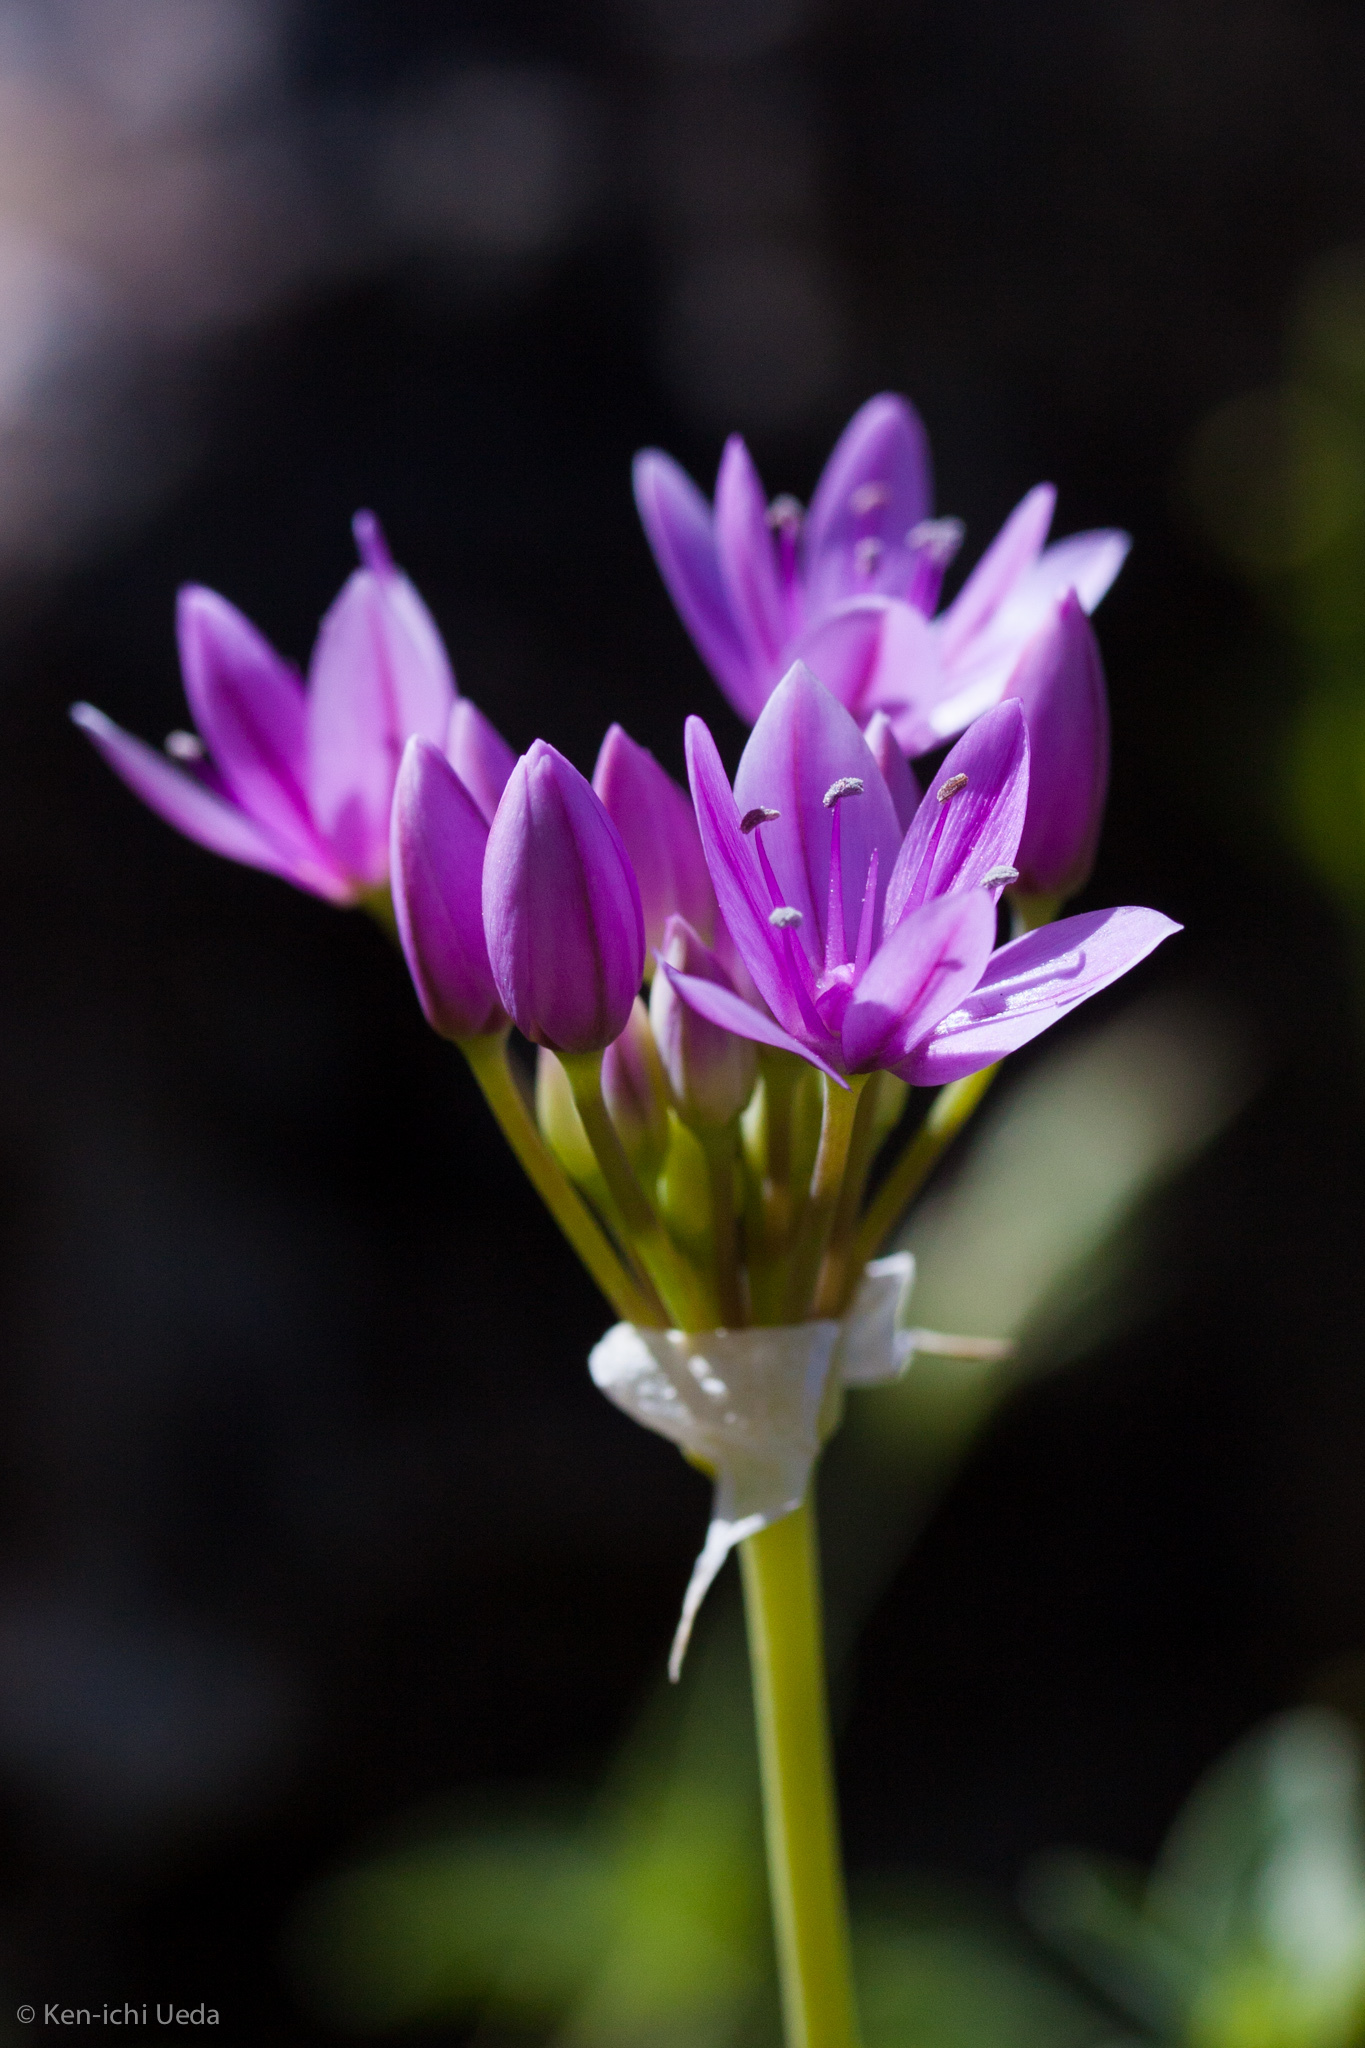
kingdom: Plantae
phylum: Tracheophyta
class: Liliopsida
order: Asparagales
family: Amaryllidaceae
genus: Allium
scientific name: Allium unifolium
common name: American garlic
